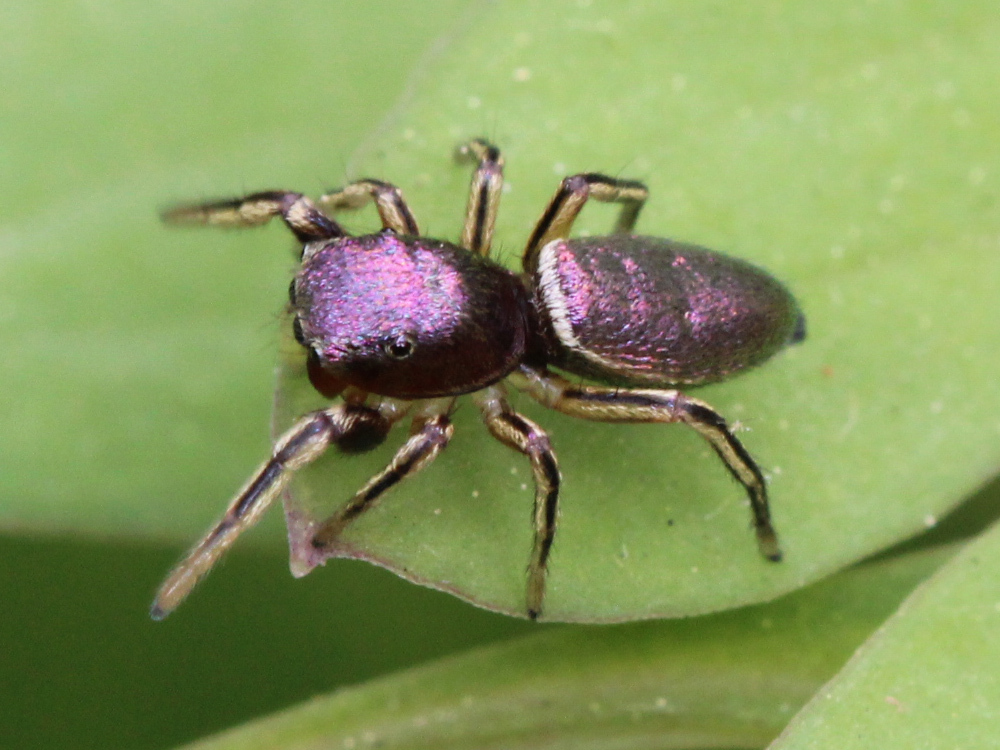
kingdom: Animalia
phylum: Arthropoda
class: Arachnida
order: Araneae
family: Salticidae
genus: Tutelina
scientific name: Tutelina elegans
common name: Thin-spined jumping spider
